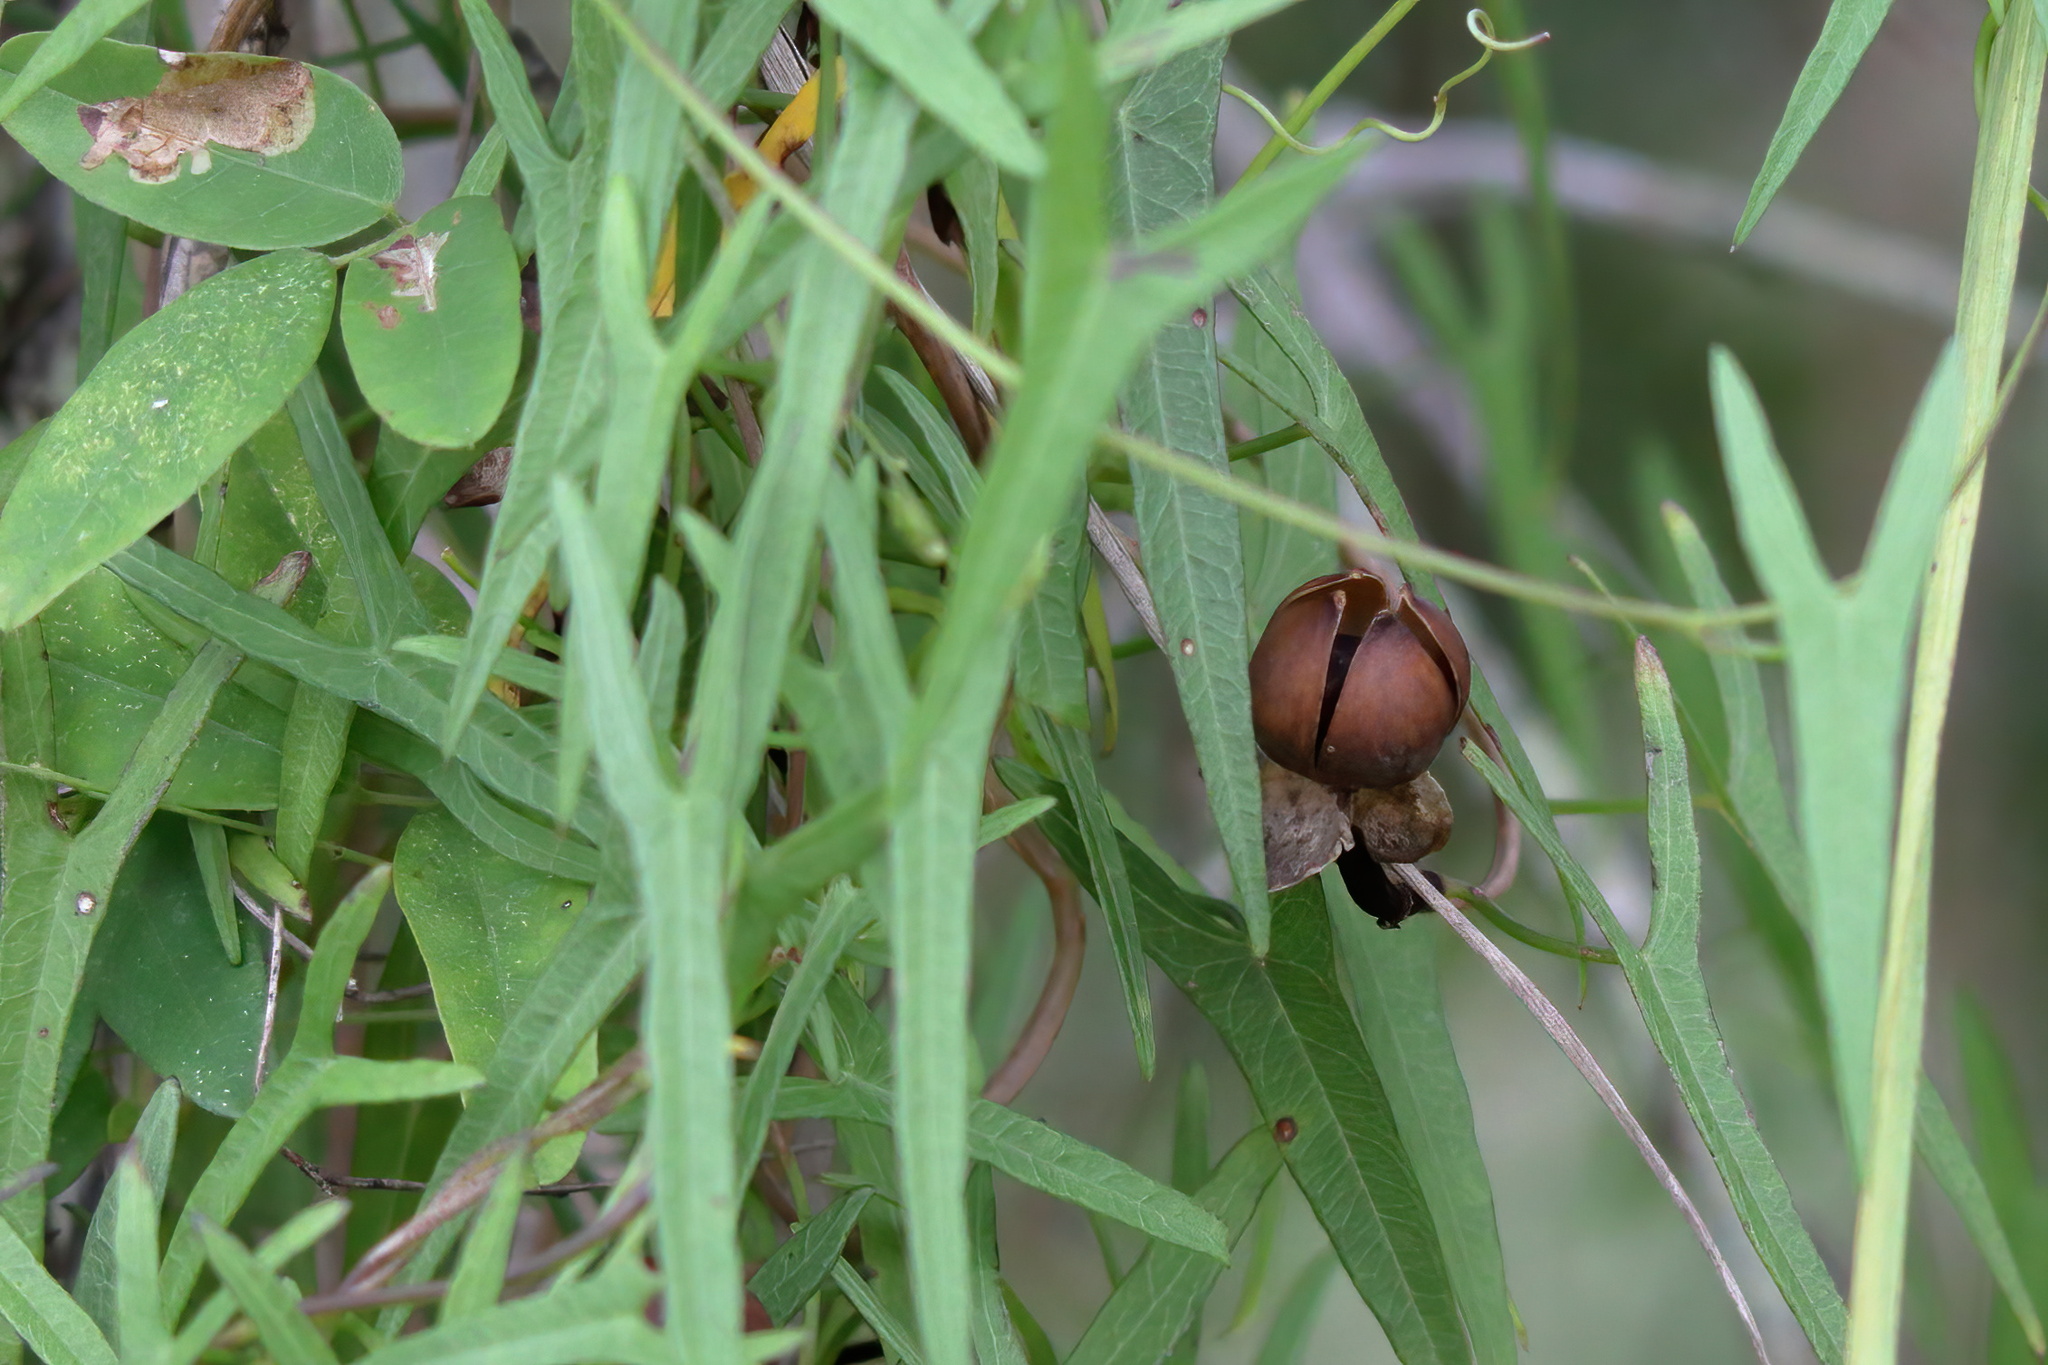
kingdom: Plantae
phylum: Tracheophyta
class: Magnoliopsida
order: Solanales
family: Convolvulaceae
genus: Ipomoea
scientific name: Ipomoea sagittata
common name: Saltmarsh morning glory
